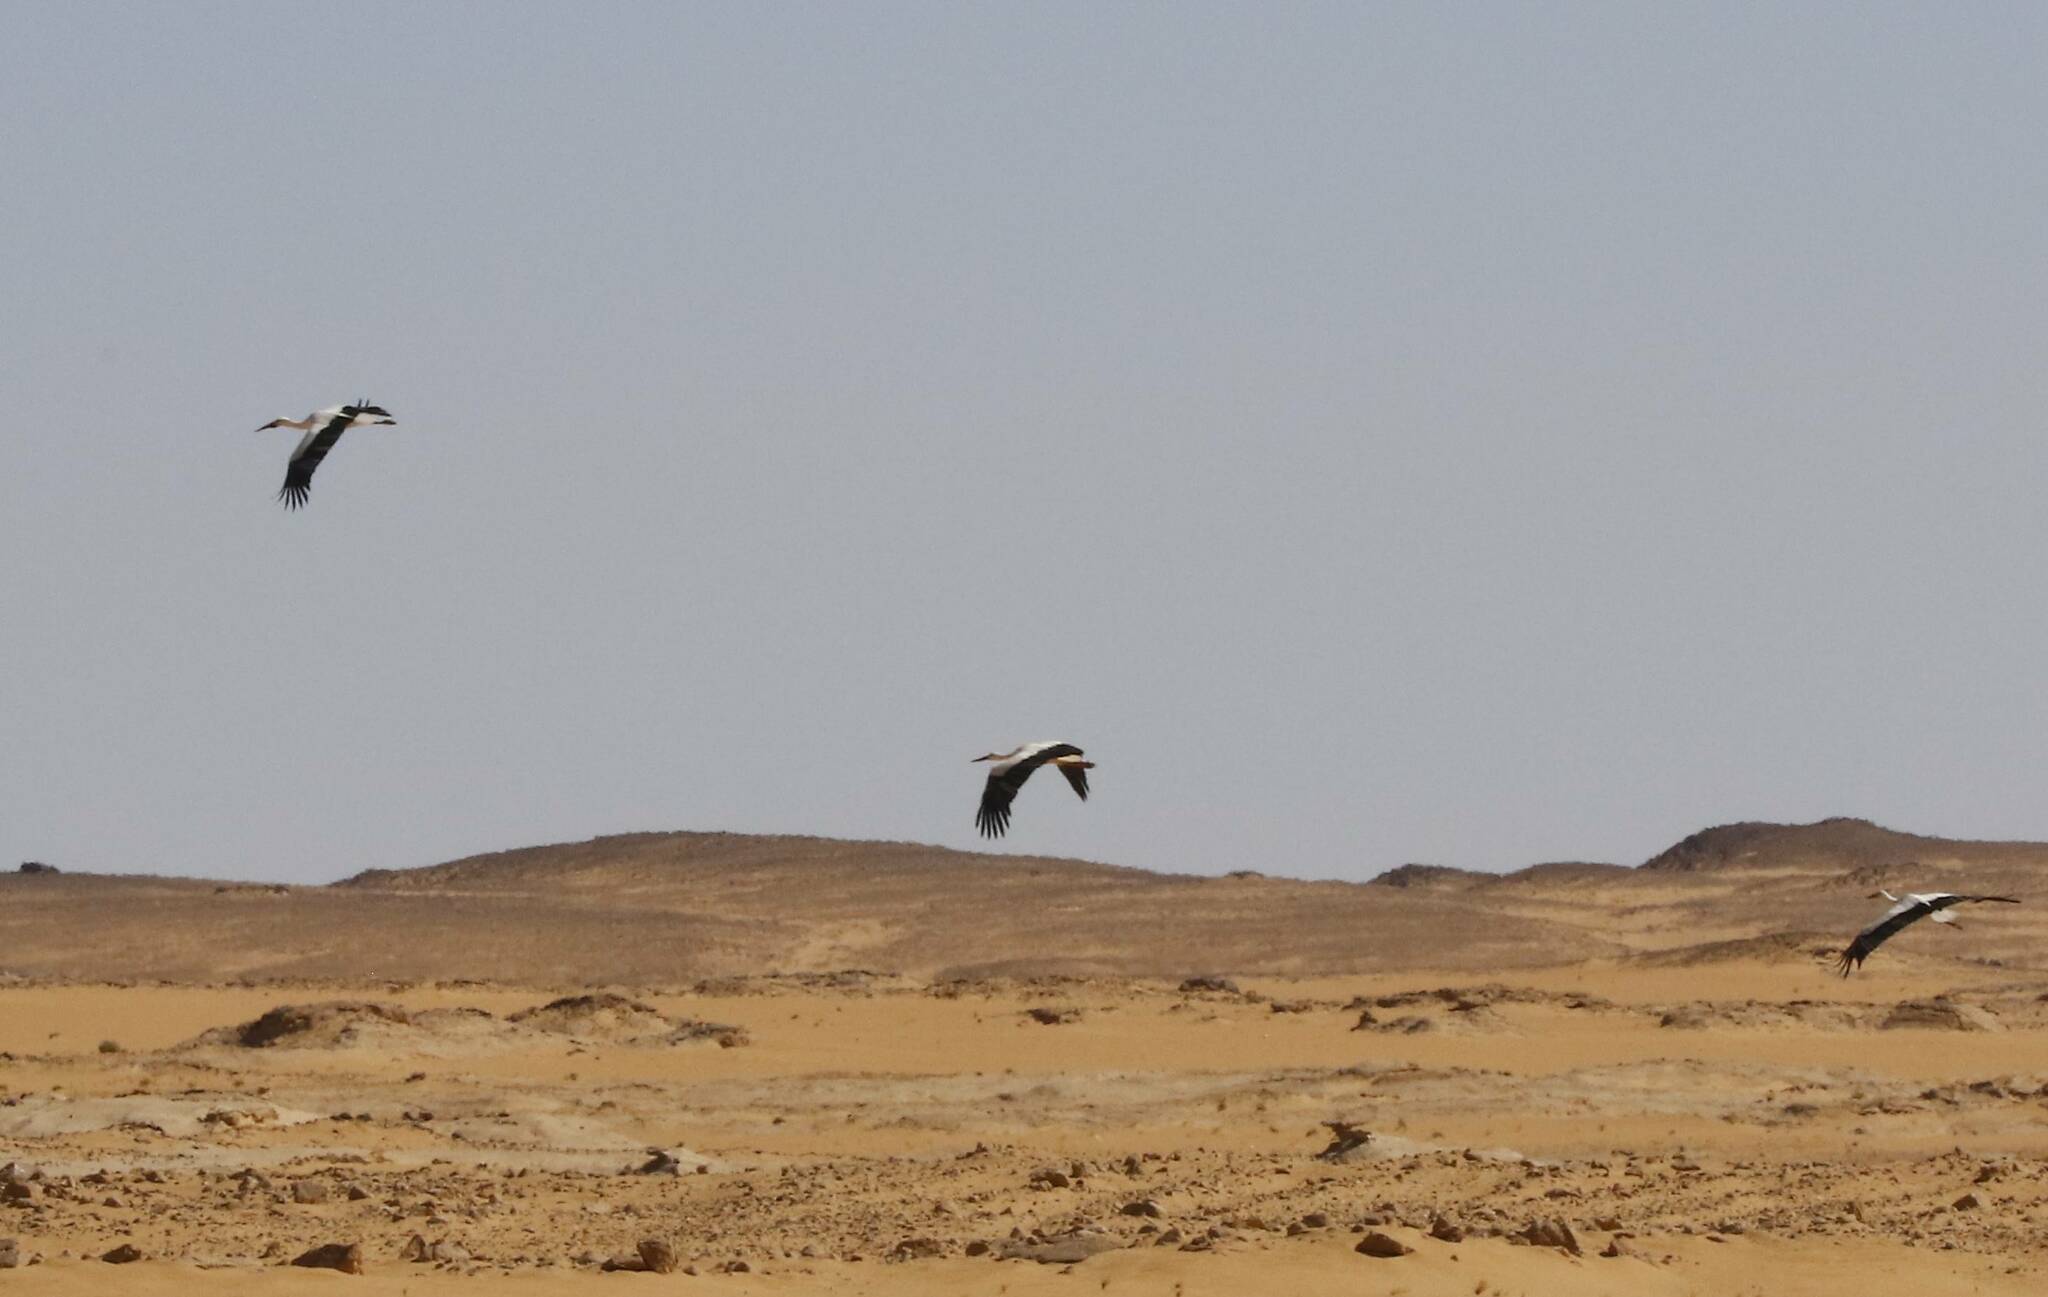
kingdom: Animalia
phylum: Chordata
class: Aves
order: Ciconiiformes
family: Ciconiidae
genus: Ciconia
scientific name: Ciconia ciconia
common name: White stork
